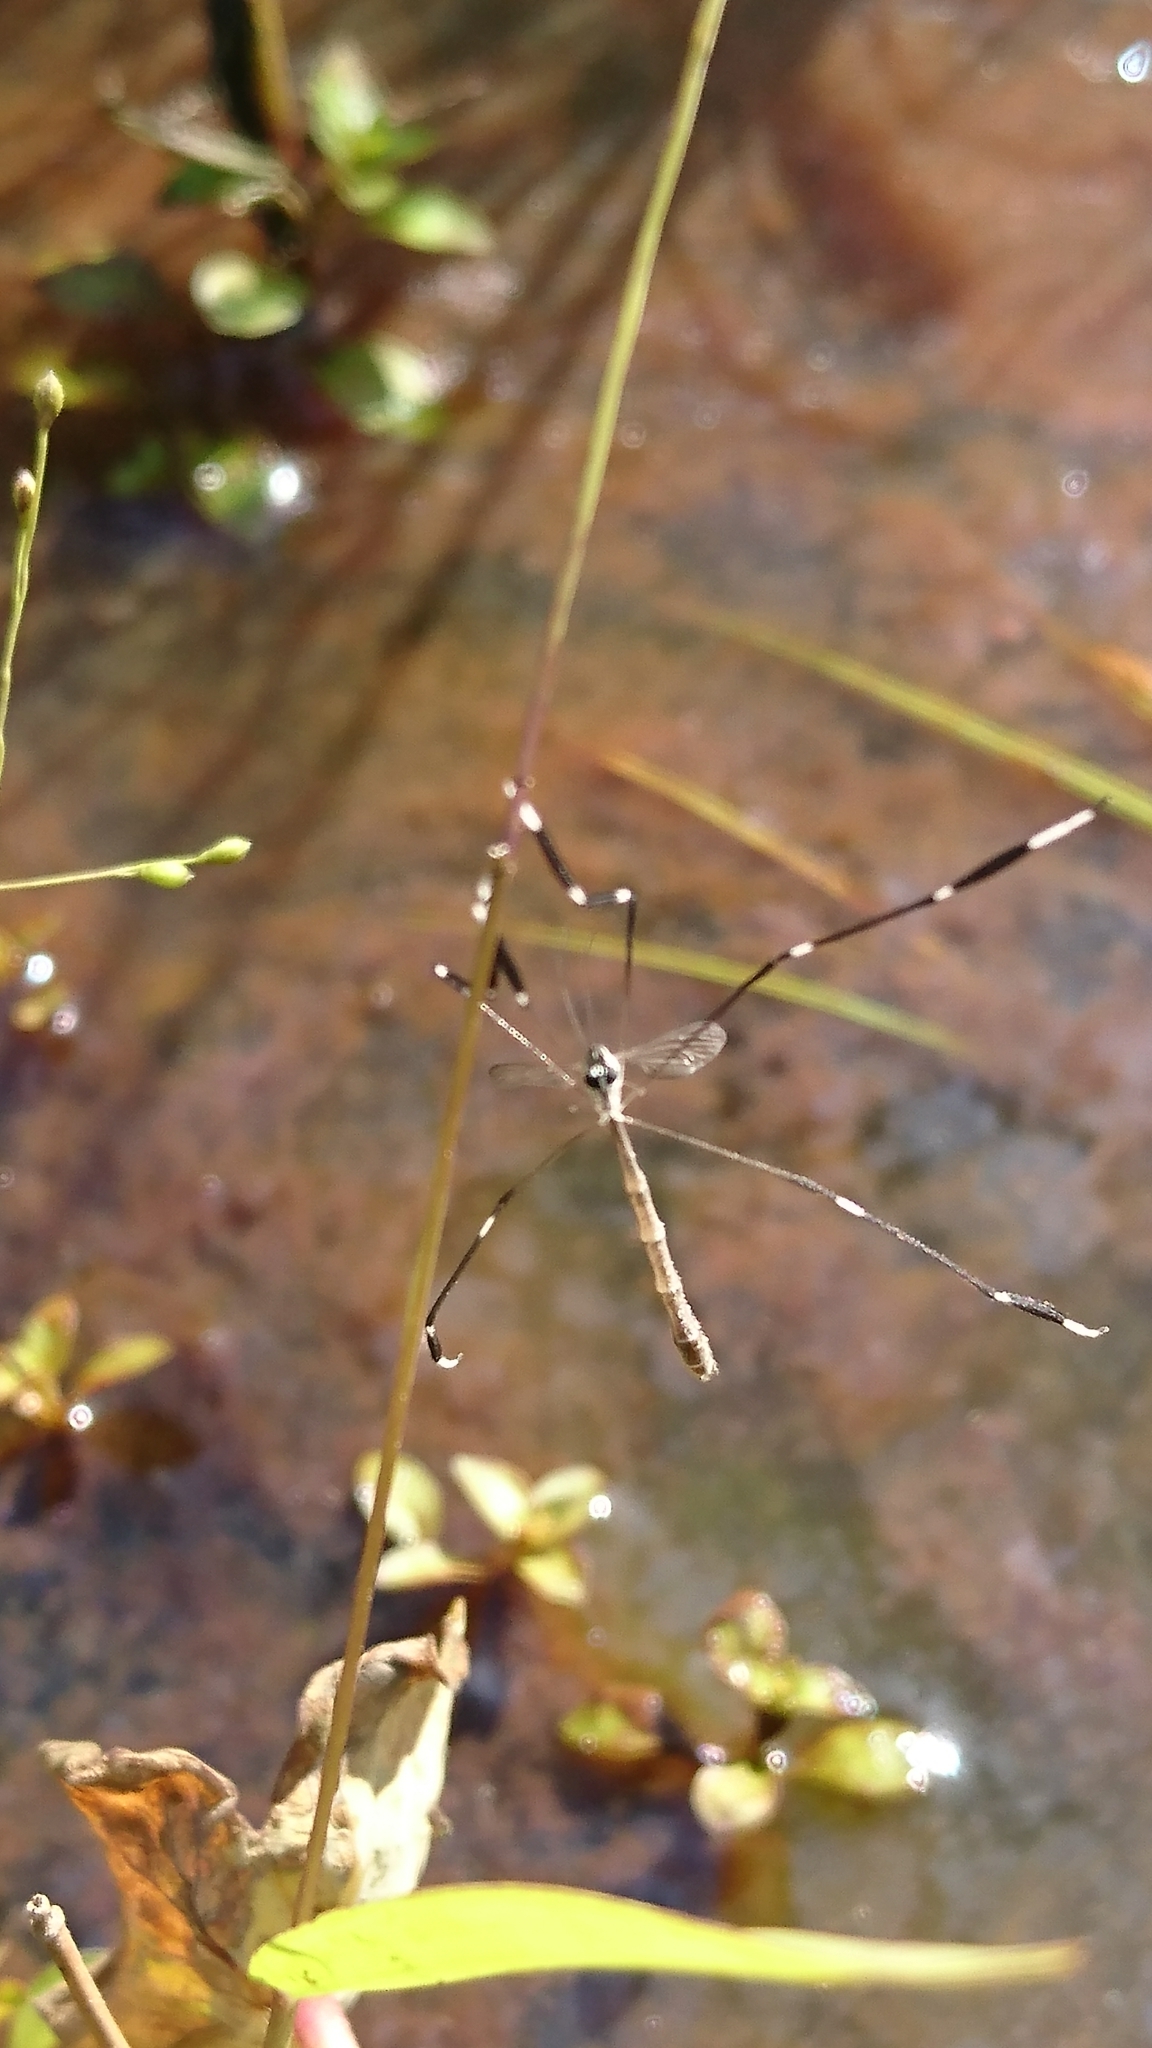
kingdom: Animalia
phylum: Arthropoda
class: Insecta
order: Diptera
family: Ptychopteridae
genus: Bittacomorpha
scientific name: Bittacomorpha clavipes
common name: Eastern phantom crane fly
